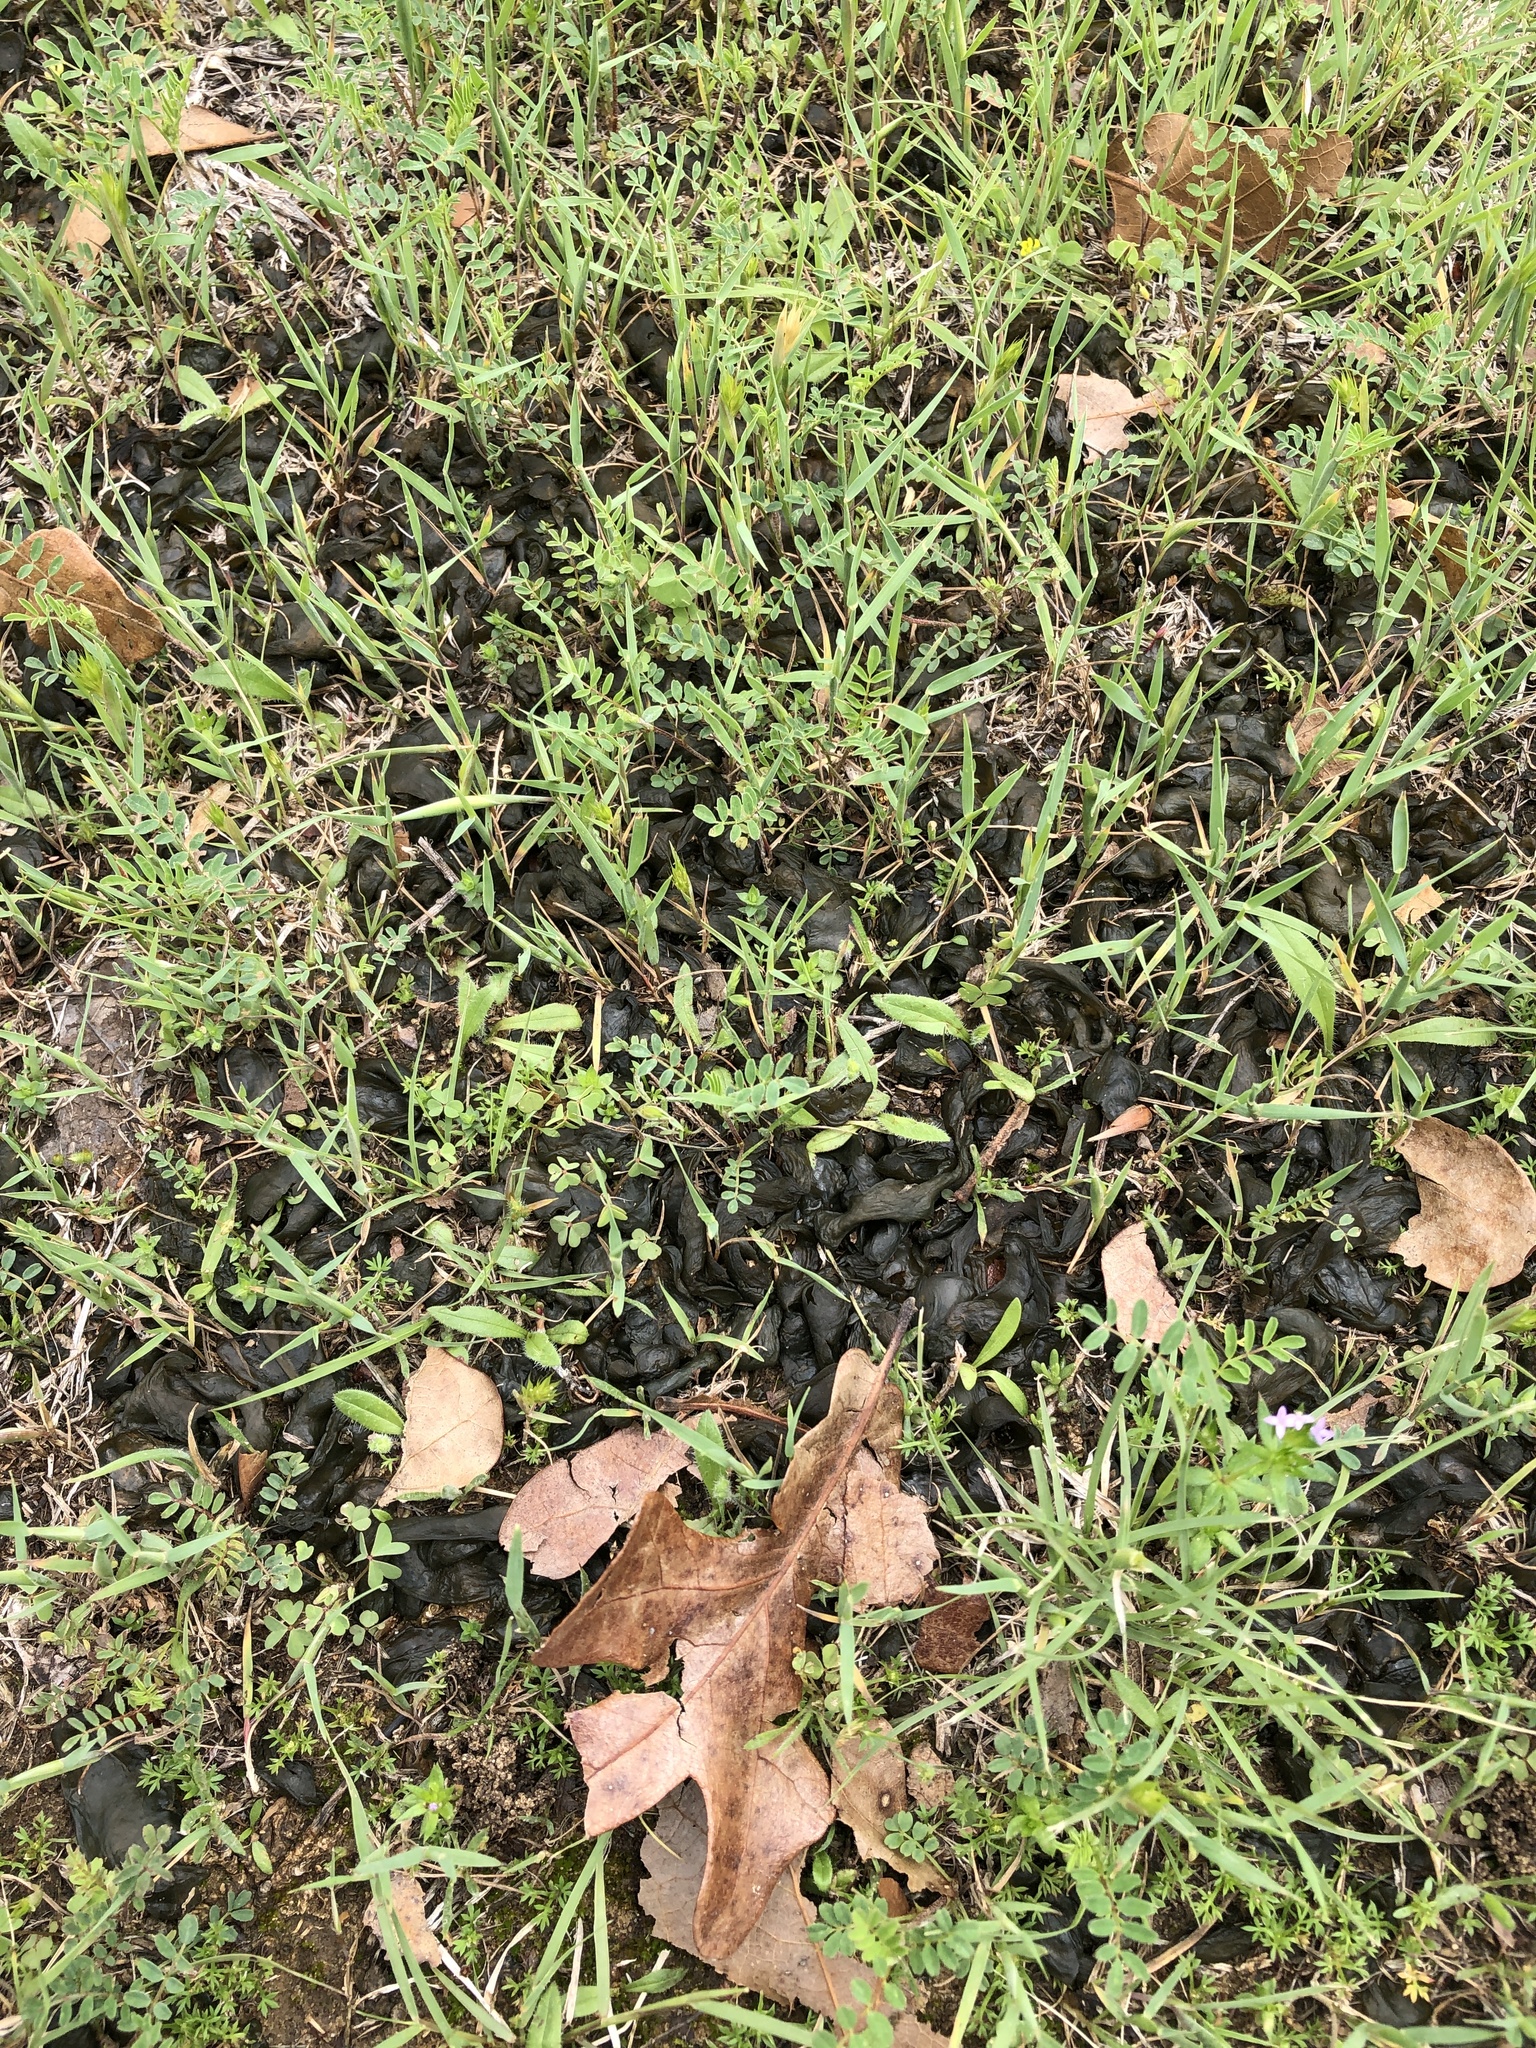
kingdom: Bacteria
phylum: Cyanobacteria
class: Cyanobacteriia
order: Cyanobacteriales
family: Nostocaceae
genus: Nostoc
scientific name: Nostoc commune
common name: Star jelly
